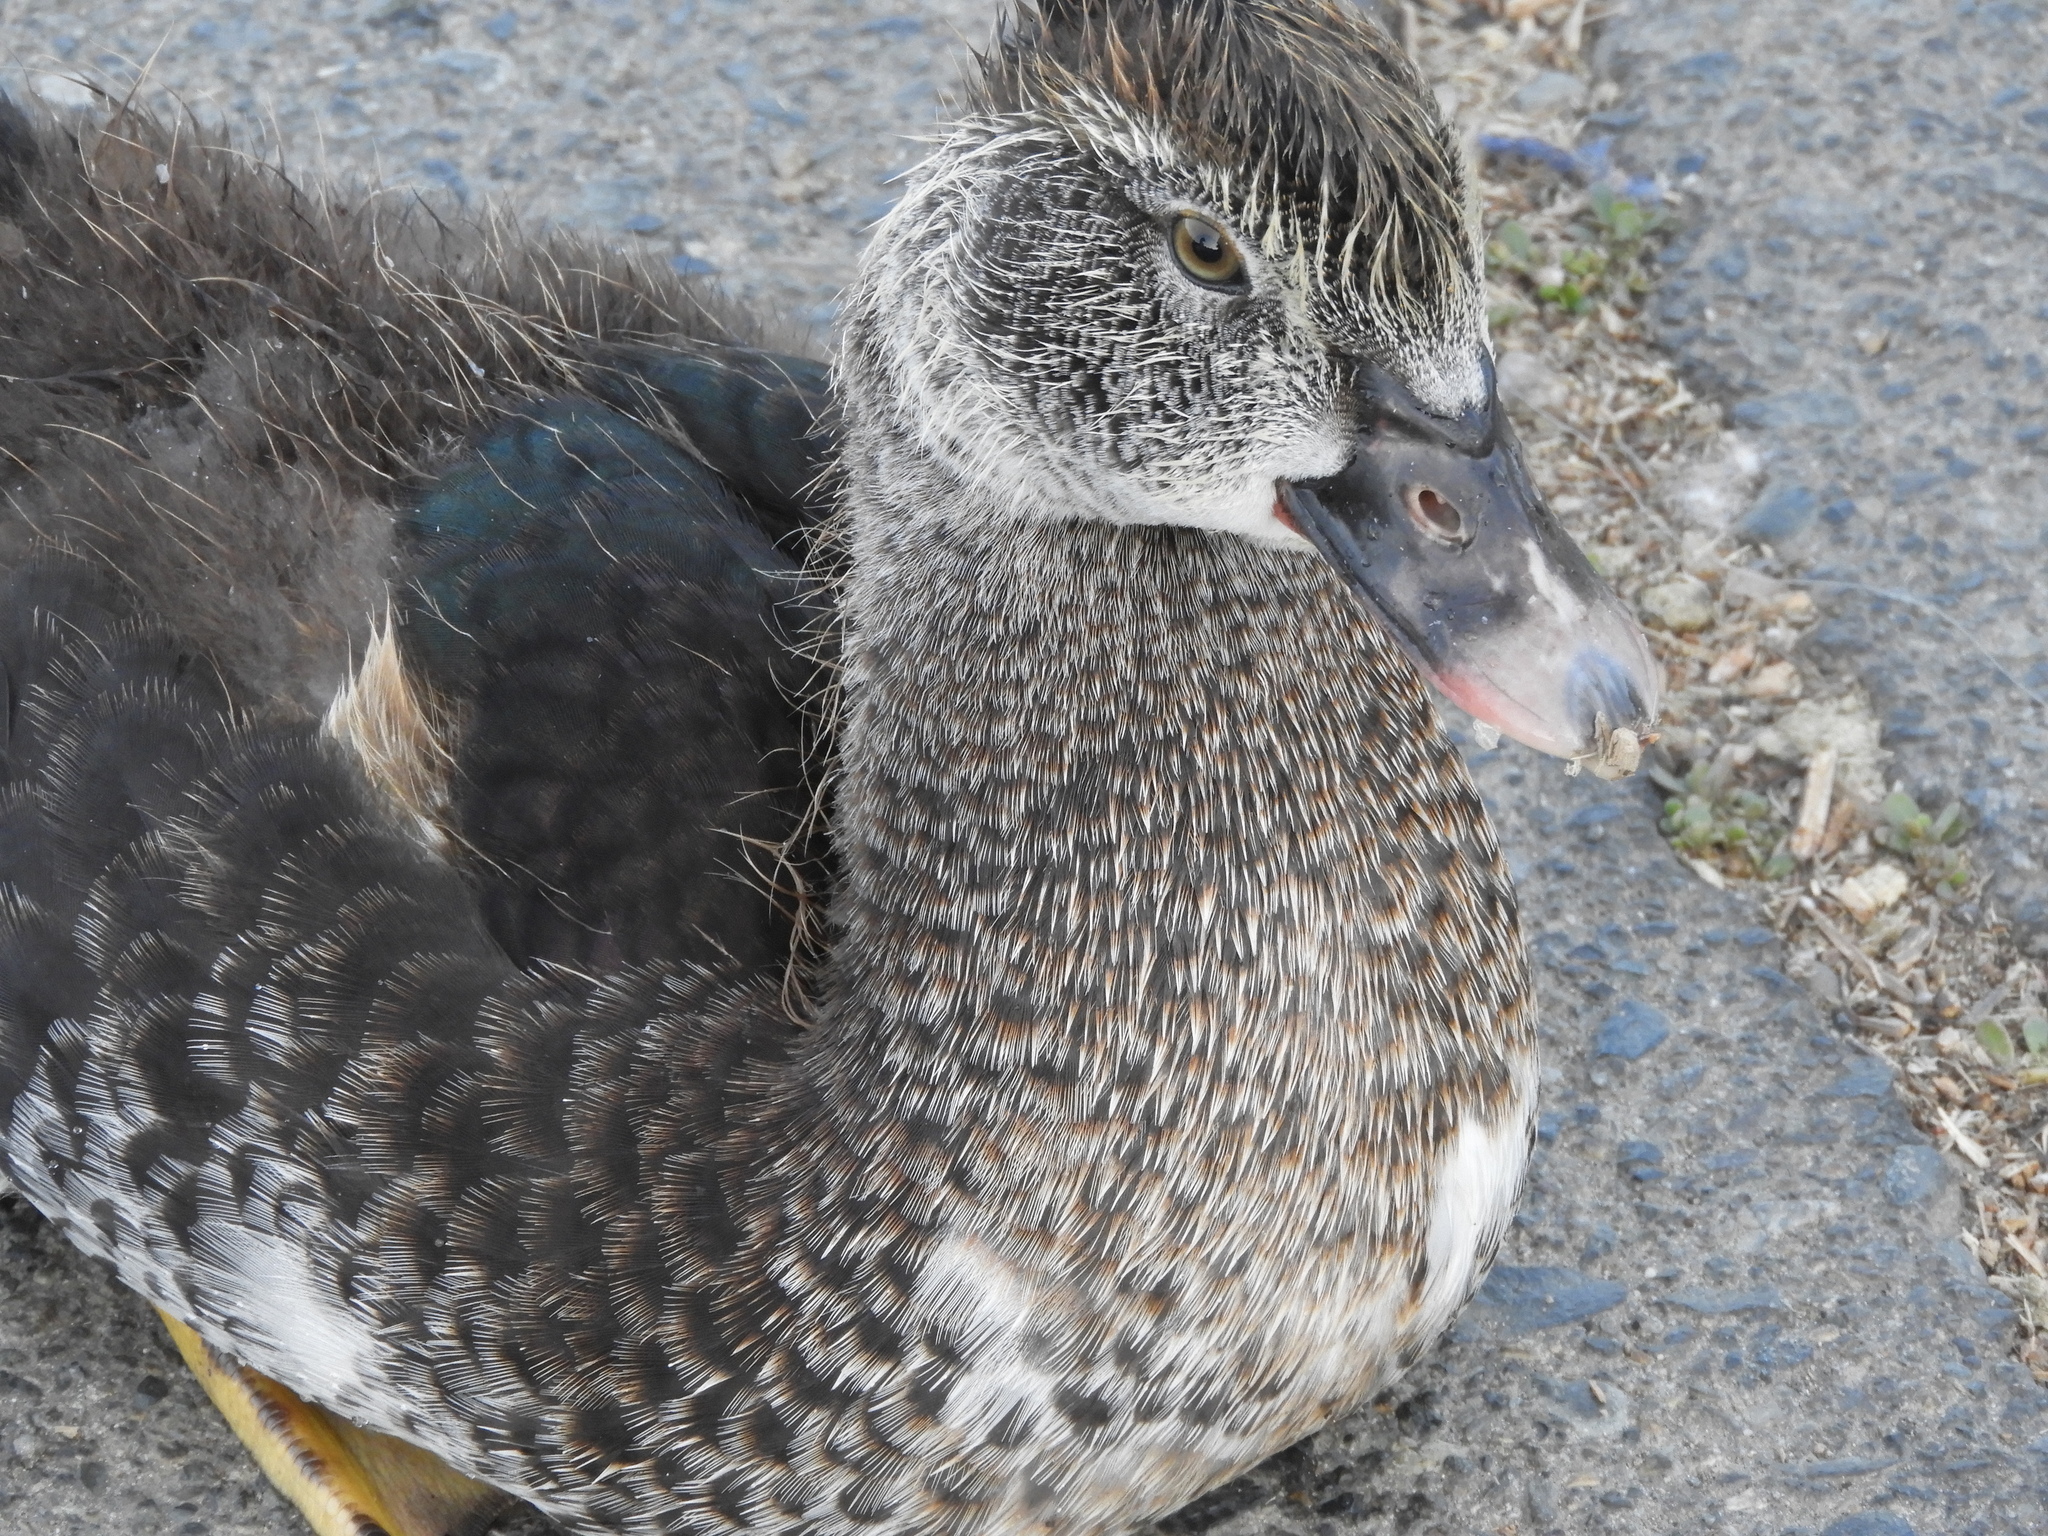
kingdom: Animalia
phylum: Chordata
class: Aves
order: Anseriformes
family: Anatidae
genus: Cairina
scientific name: Cairina moschata
